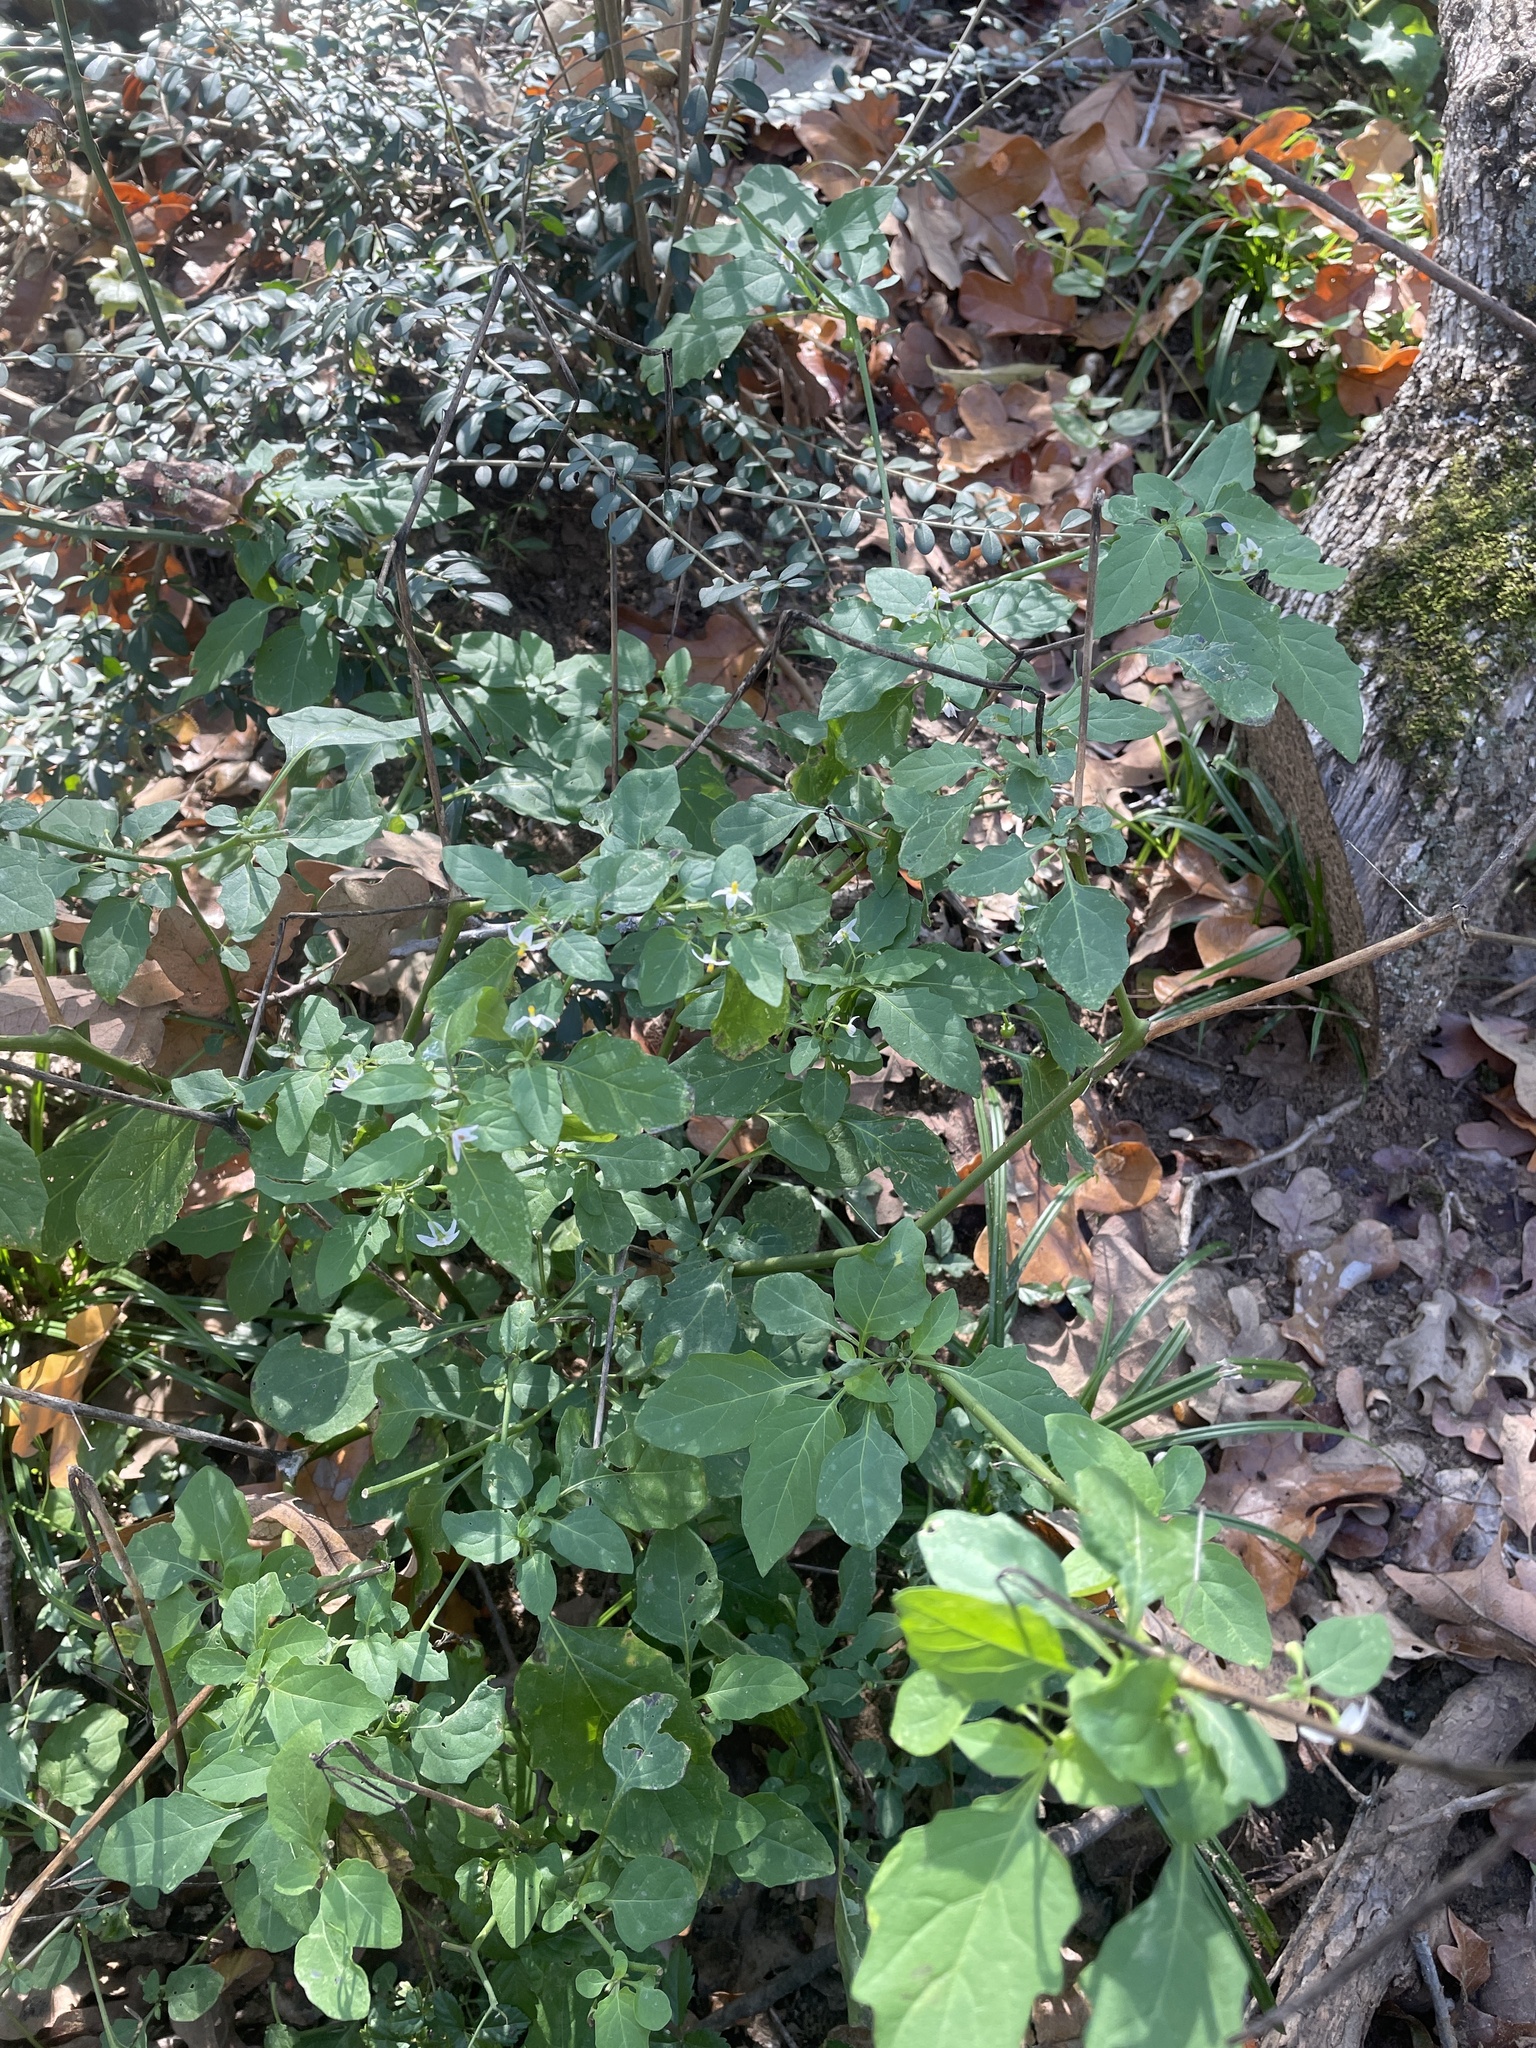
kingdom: Plantae
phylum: Tracheophyta
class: Magnoliopsida
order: Solanales
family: Solanaceae
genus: Solanum
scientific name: Solanum emulans
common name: Eastern black nightshade
